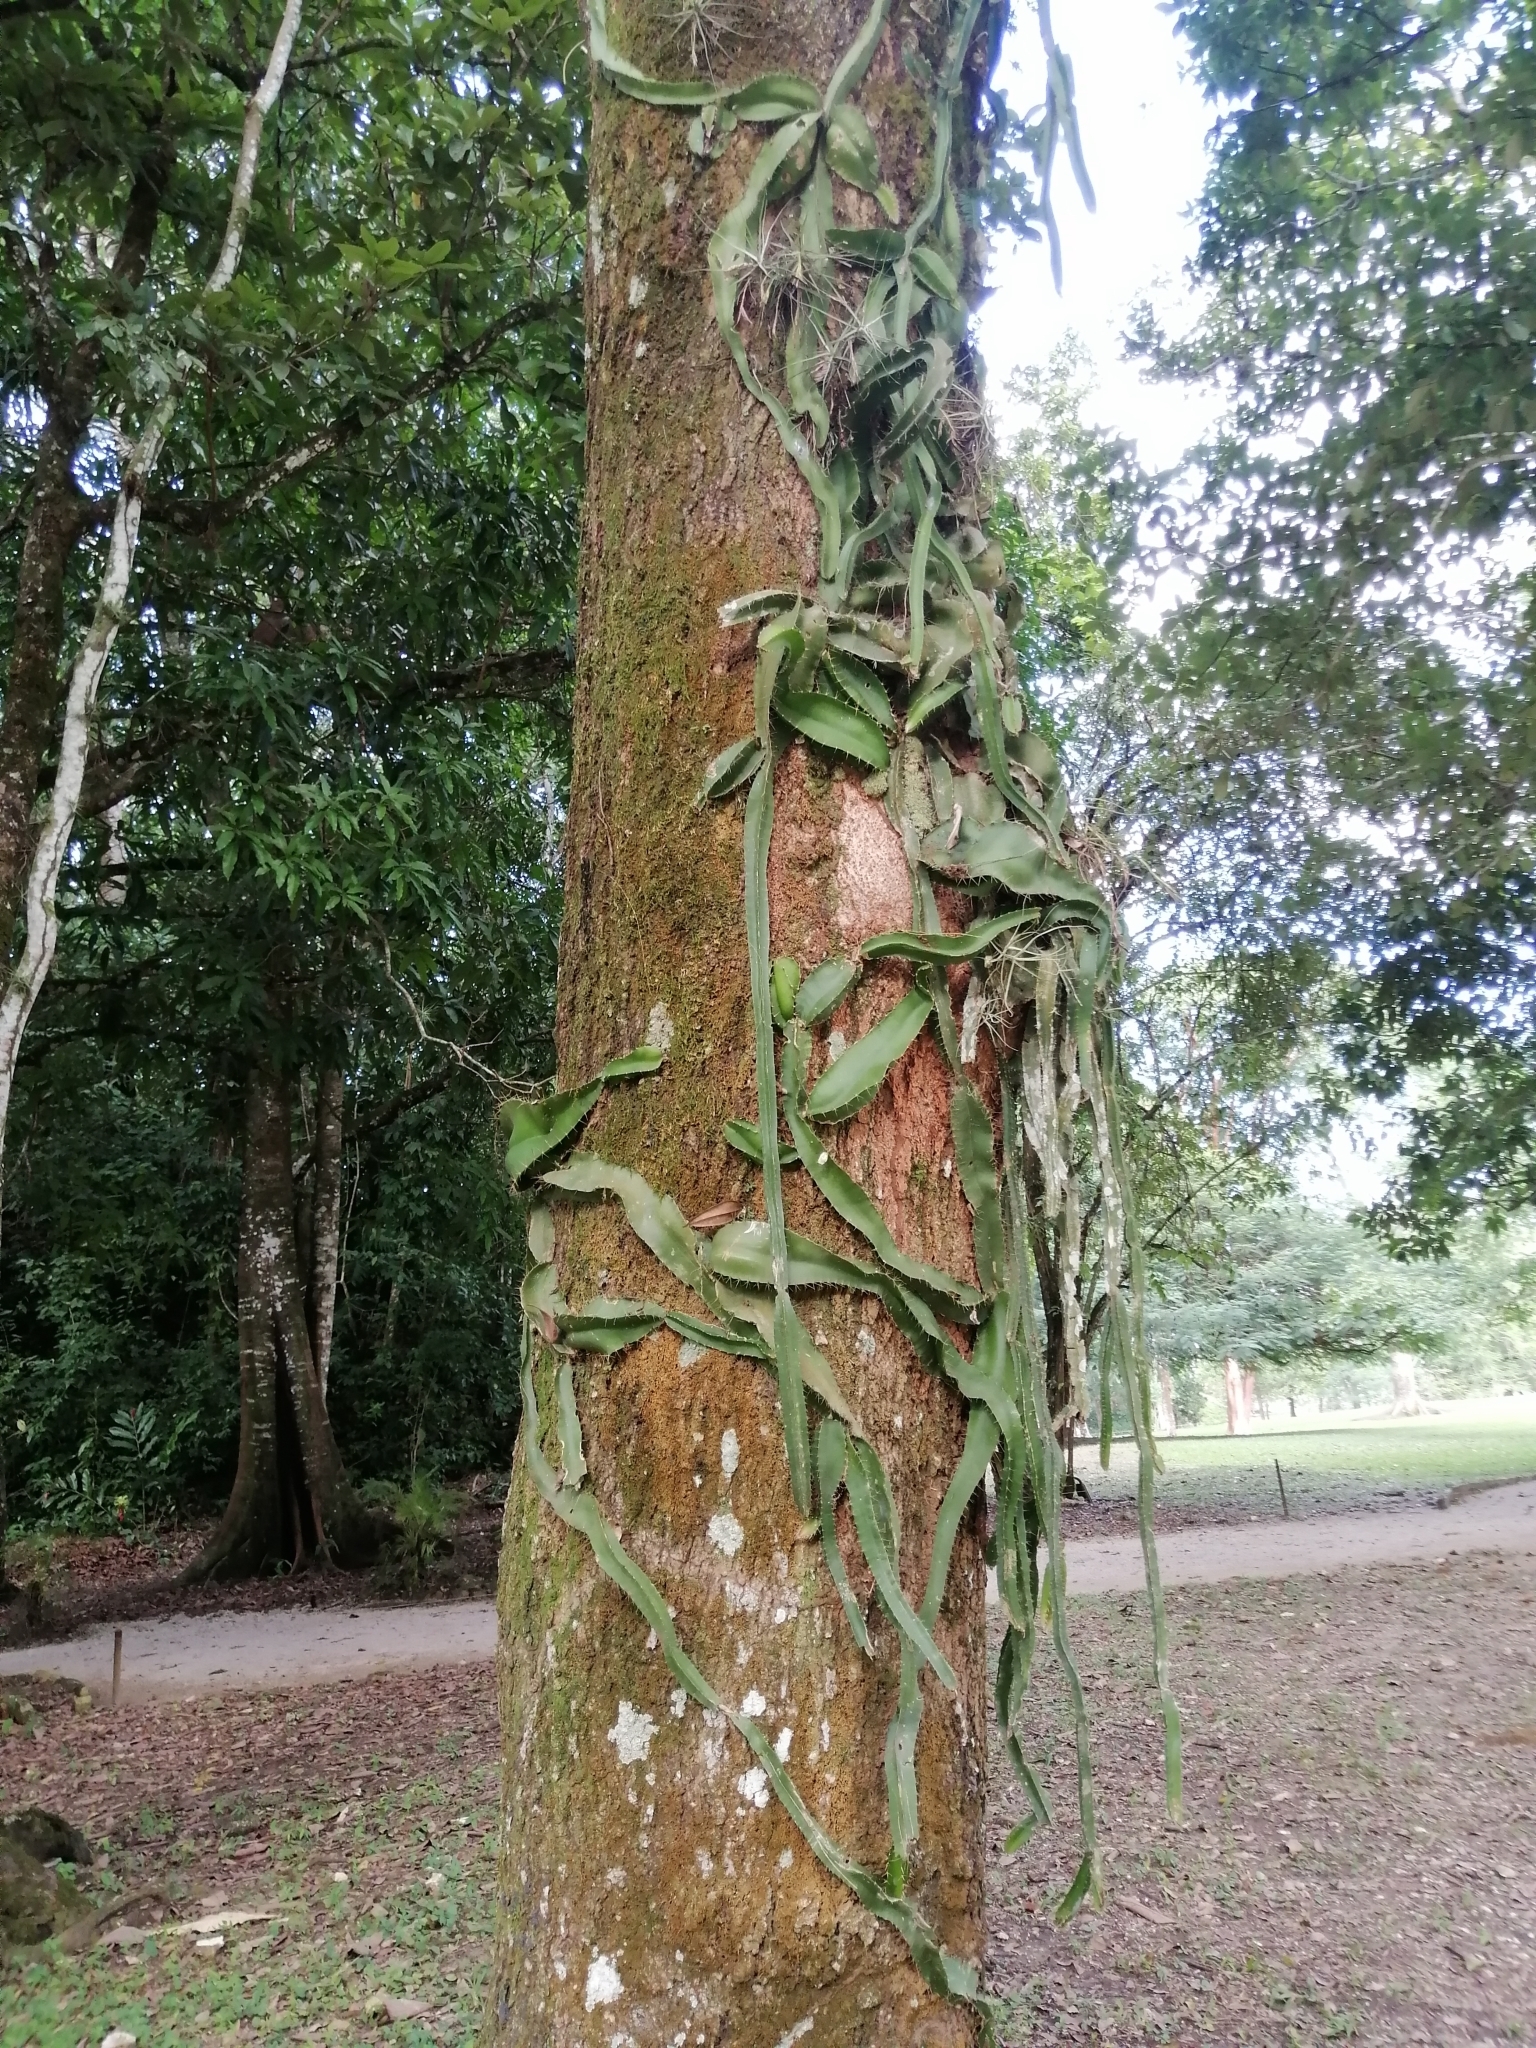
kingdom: Plantae
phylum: Tracheophyta
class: Magnoliopsida
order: Caryophyllales
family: Cactaceae
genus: Deamia
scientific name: Deamia testudo
